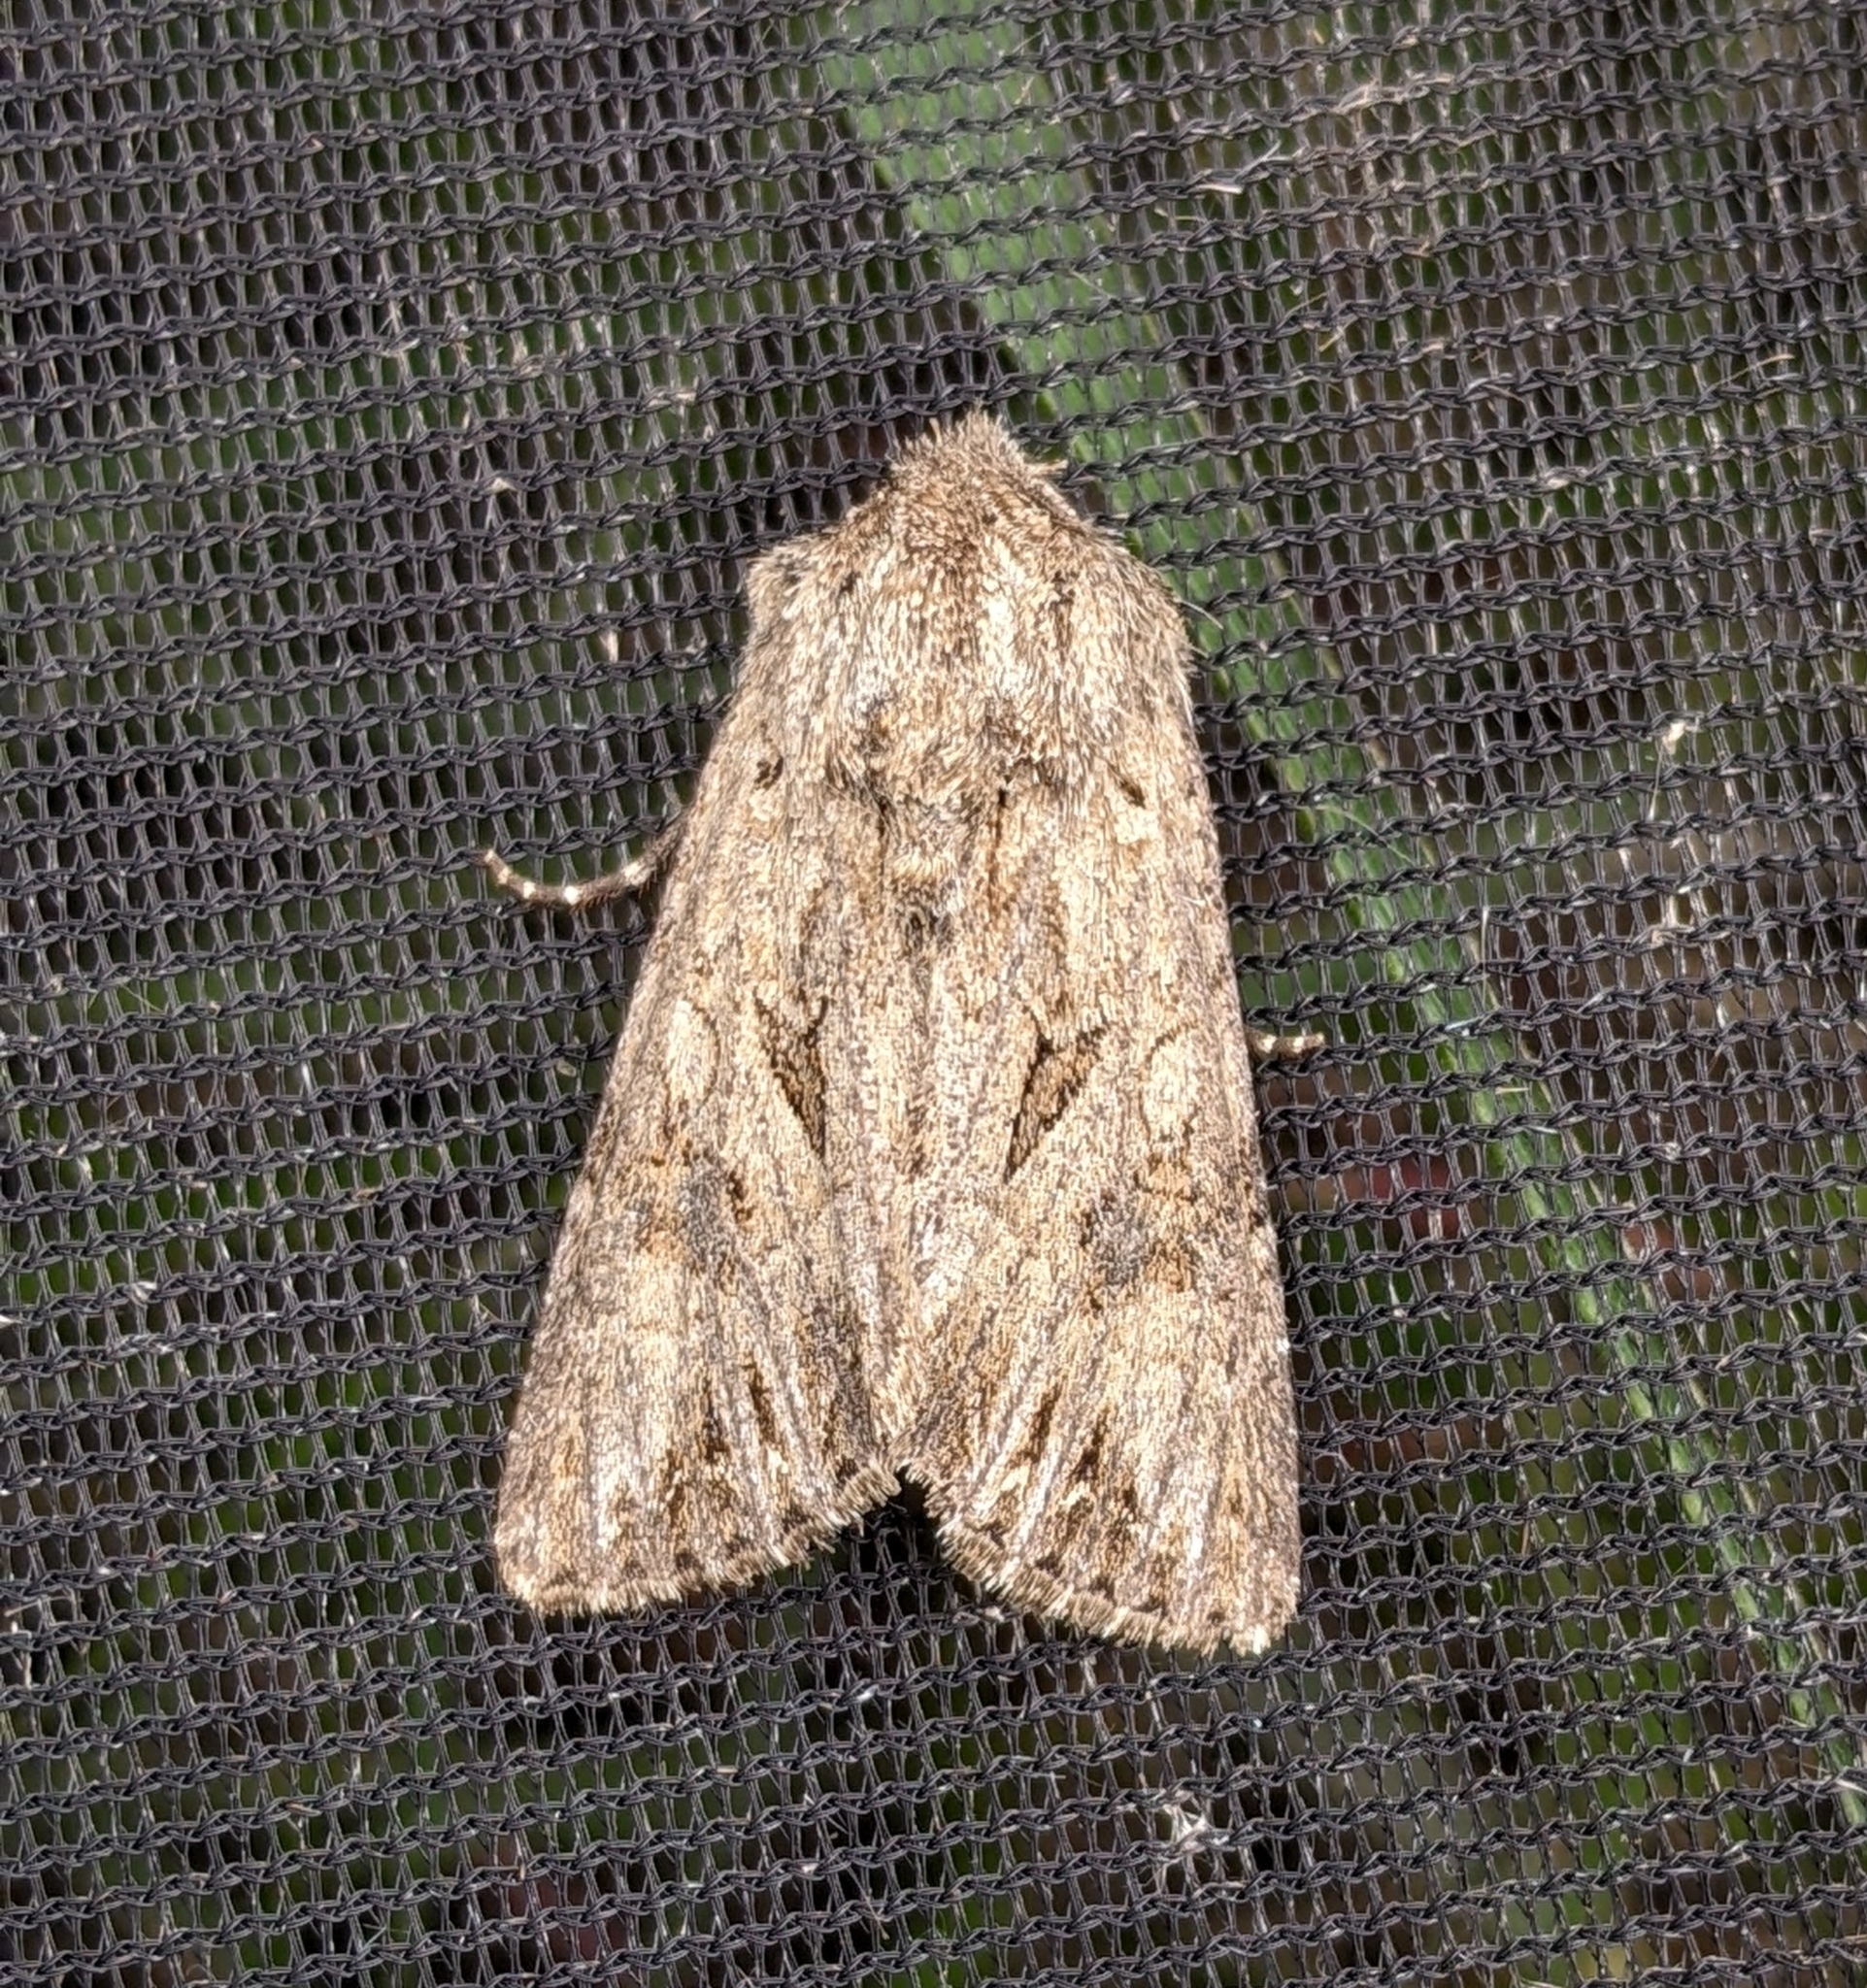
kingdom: Animalia
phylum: Arthropoda
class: Insecta
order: Lepidoptera
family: Noctuidae
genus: Anarta
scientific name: Anarta trifolii
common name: Clover cutworm moth
